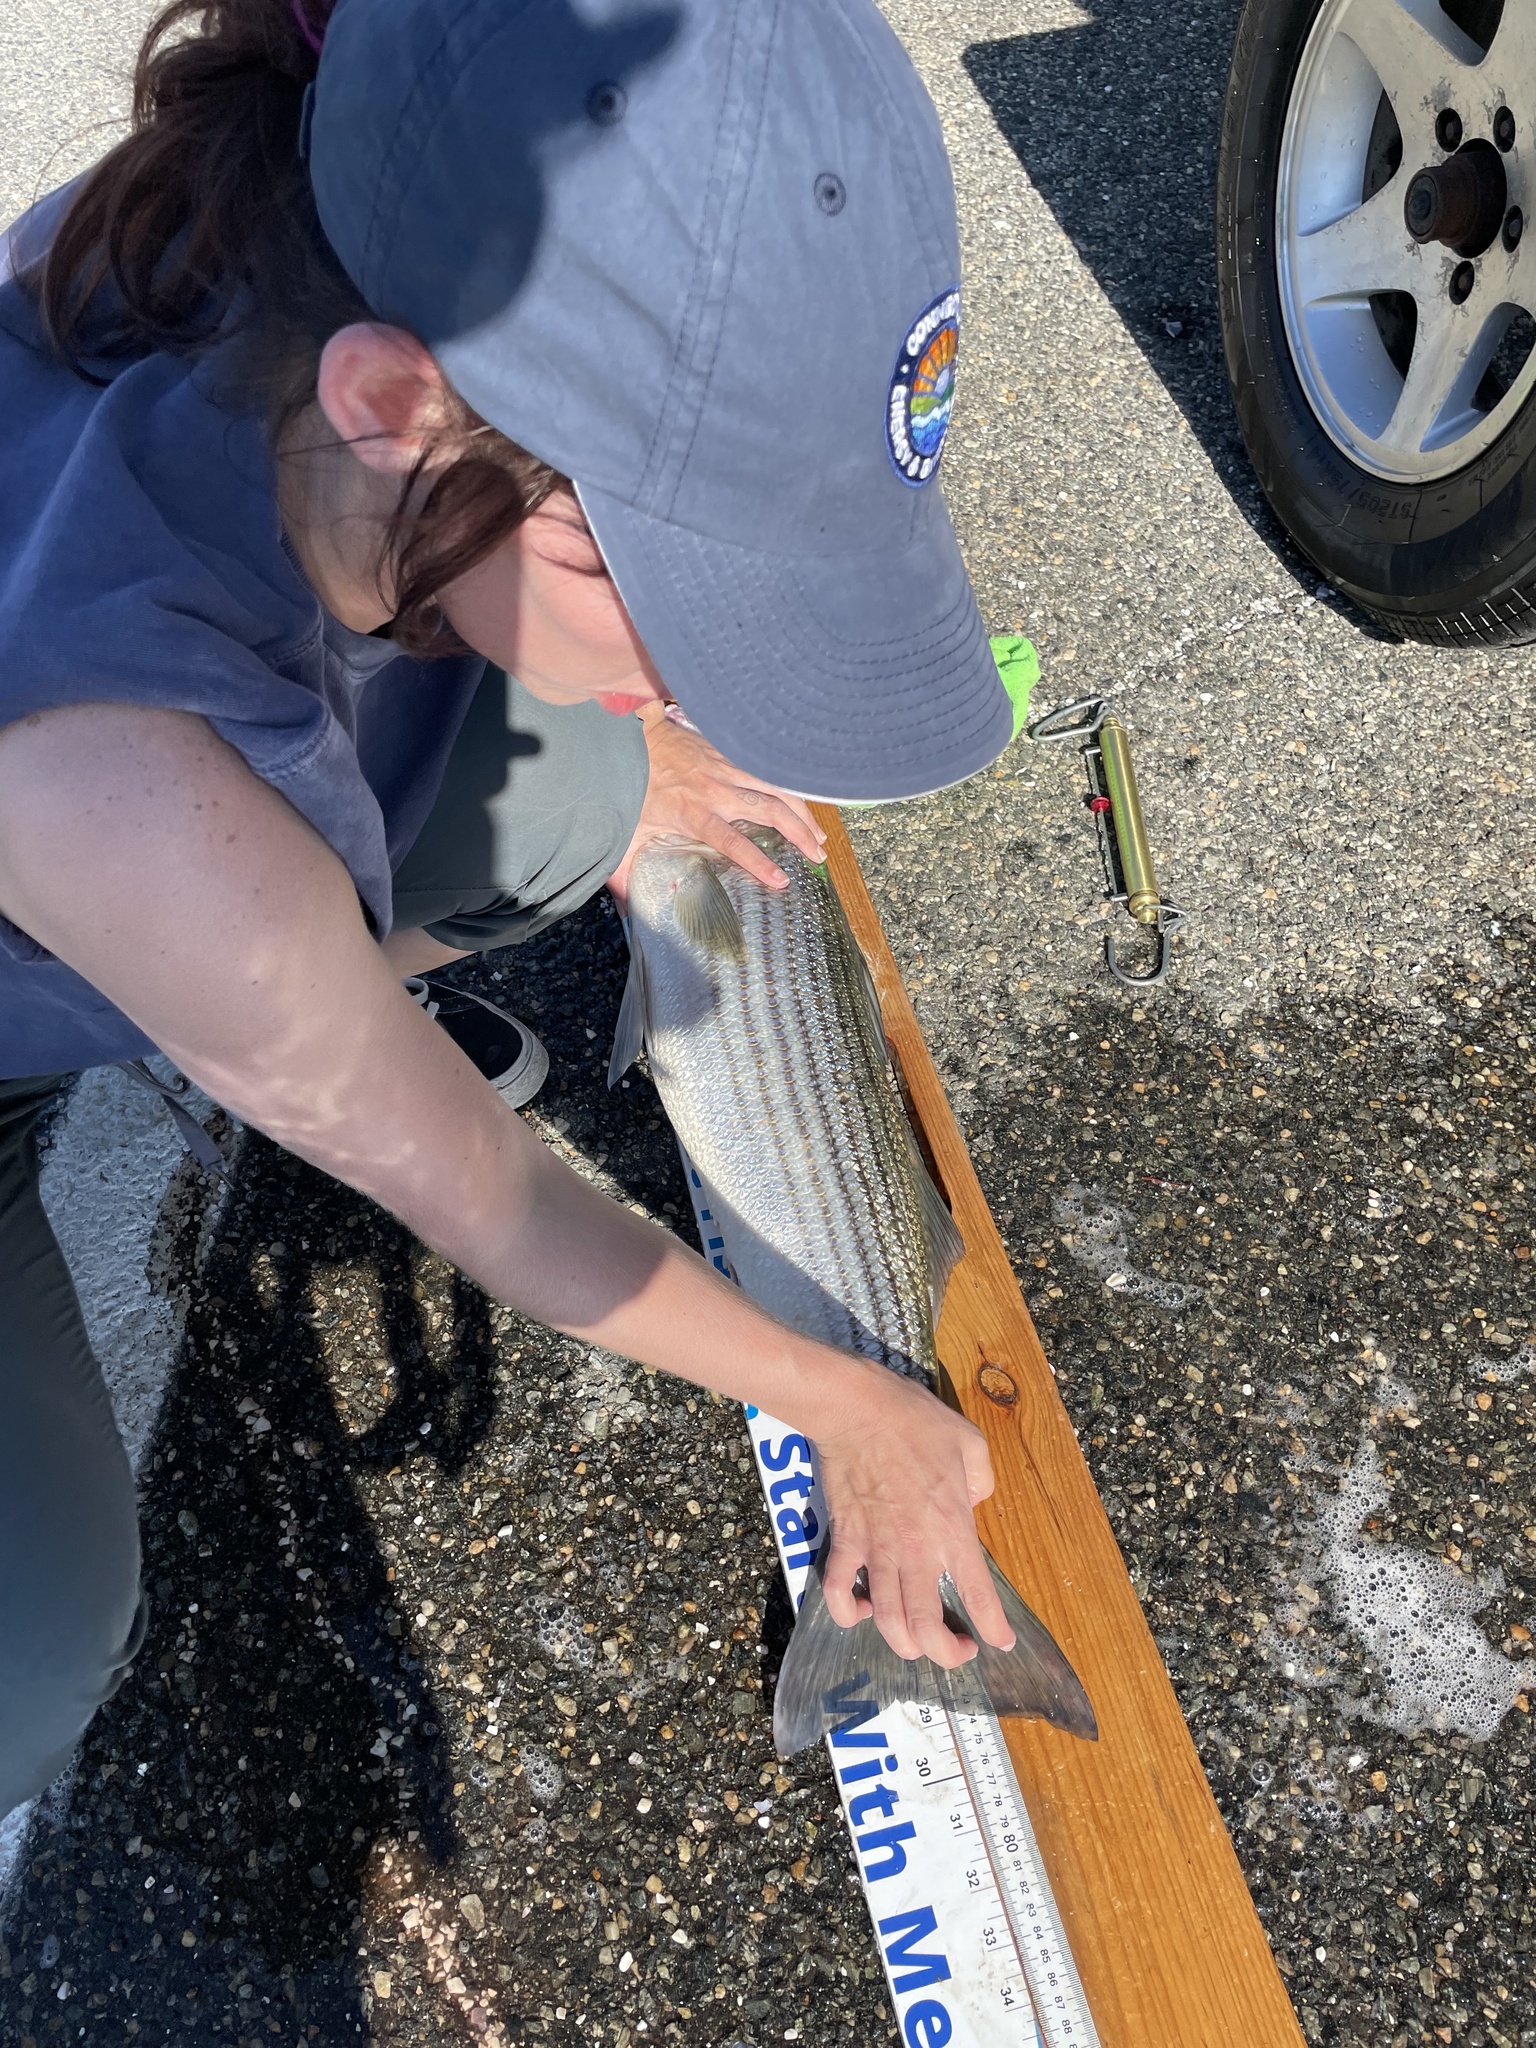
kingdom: Animalia
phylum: Chordata
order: Perciformes
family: Moronidae
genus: Morone
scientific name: Morone saxatilis
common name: Striped bass
